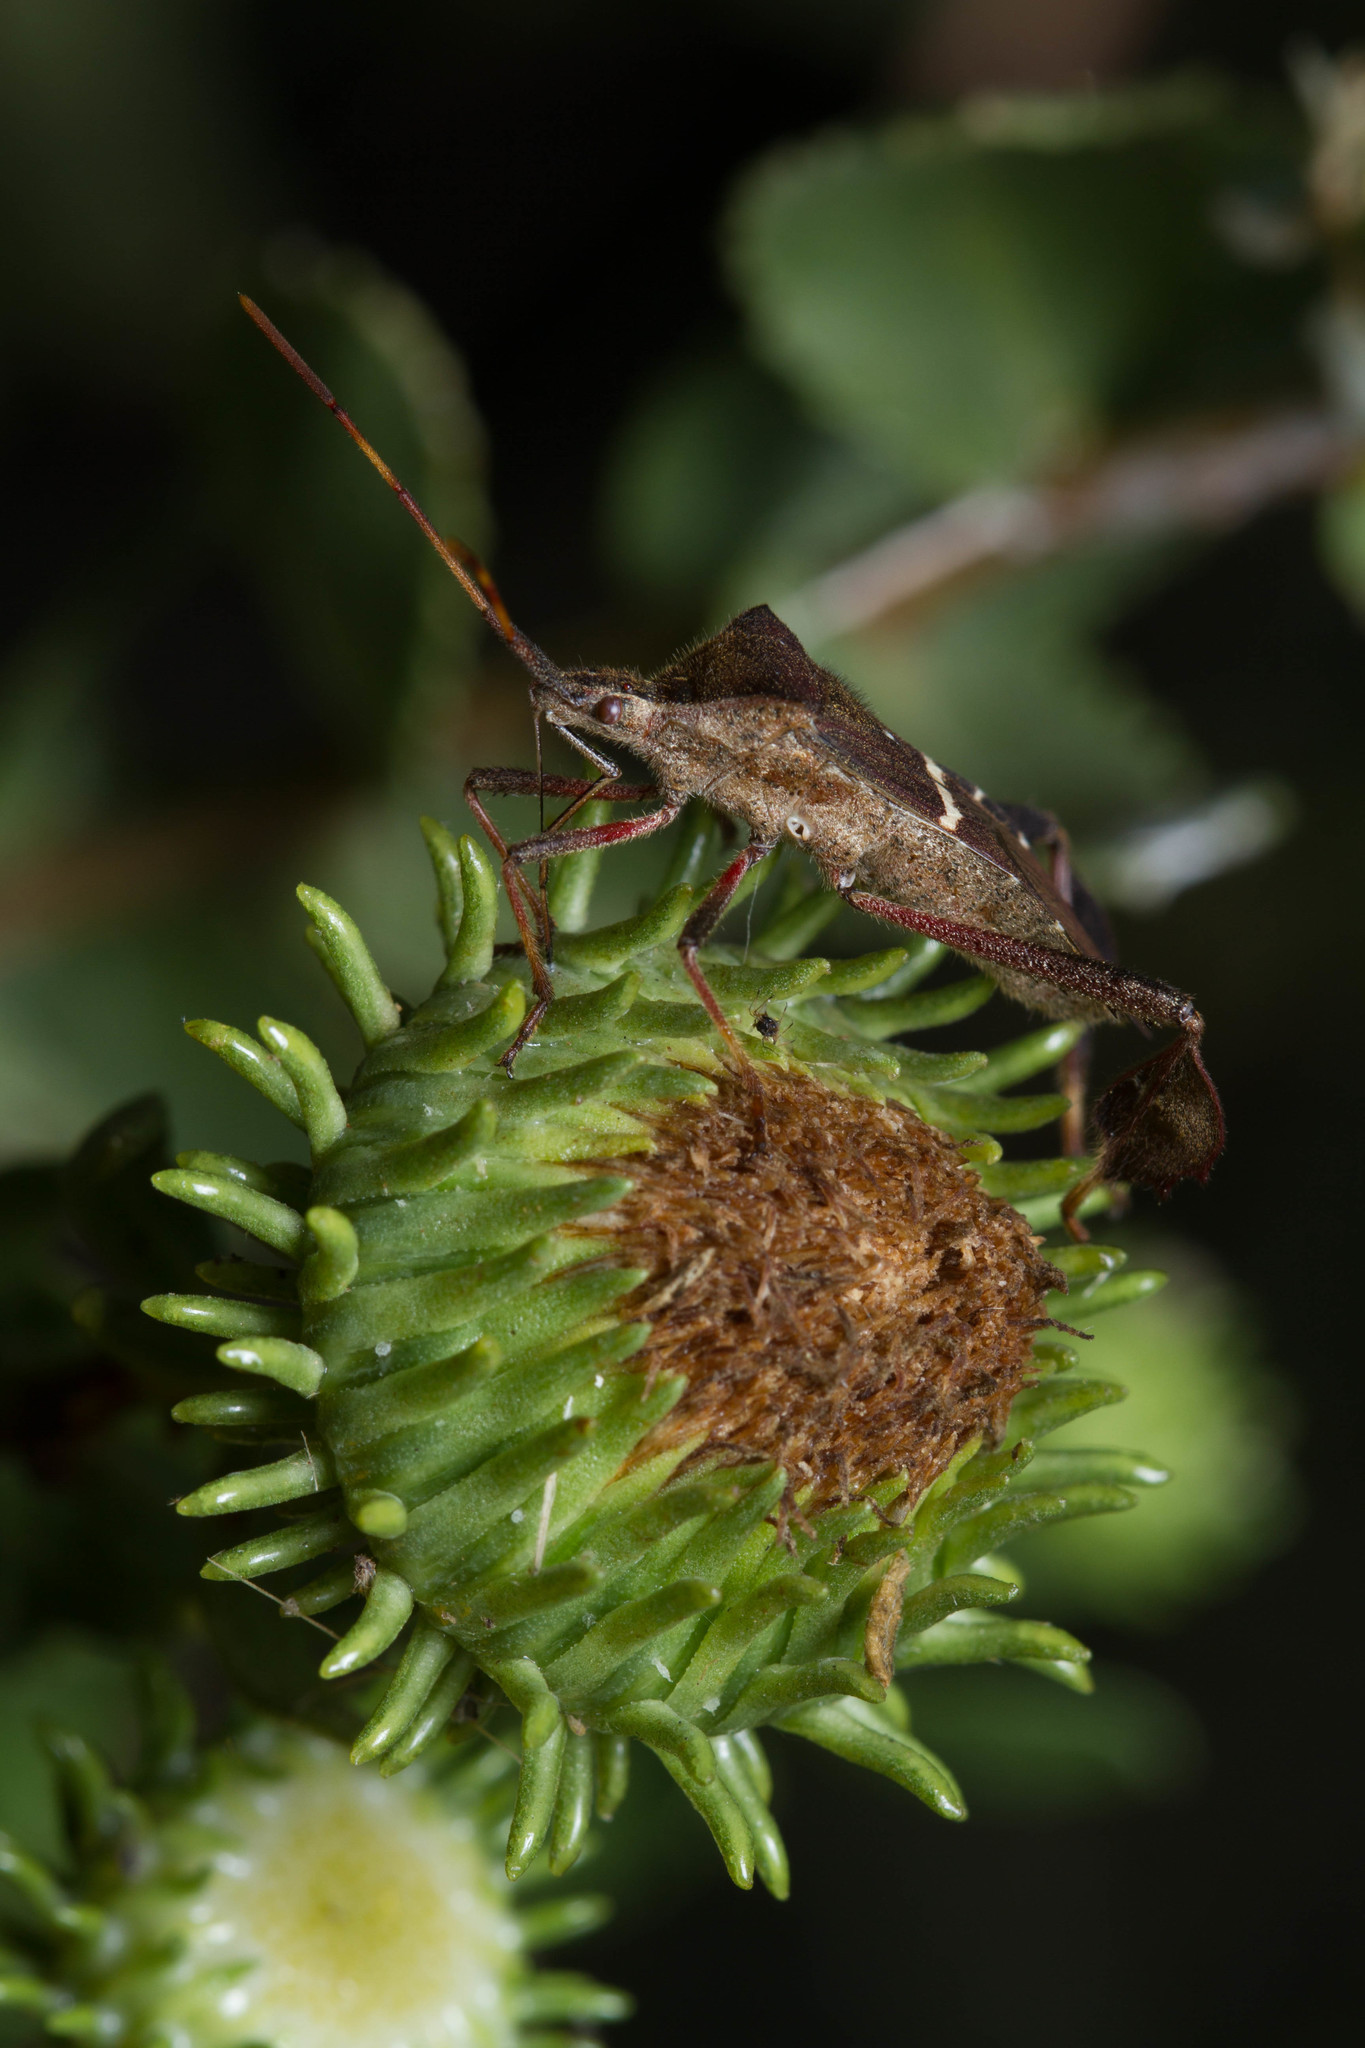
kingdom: Animalia
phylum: Arthropoda
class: Insecta
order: Hemiptera
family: Coreidae
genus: Leptoglossus
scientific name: Leptoglossus phyllopus
